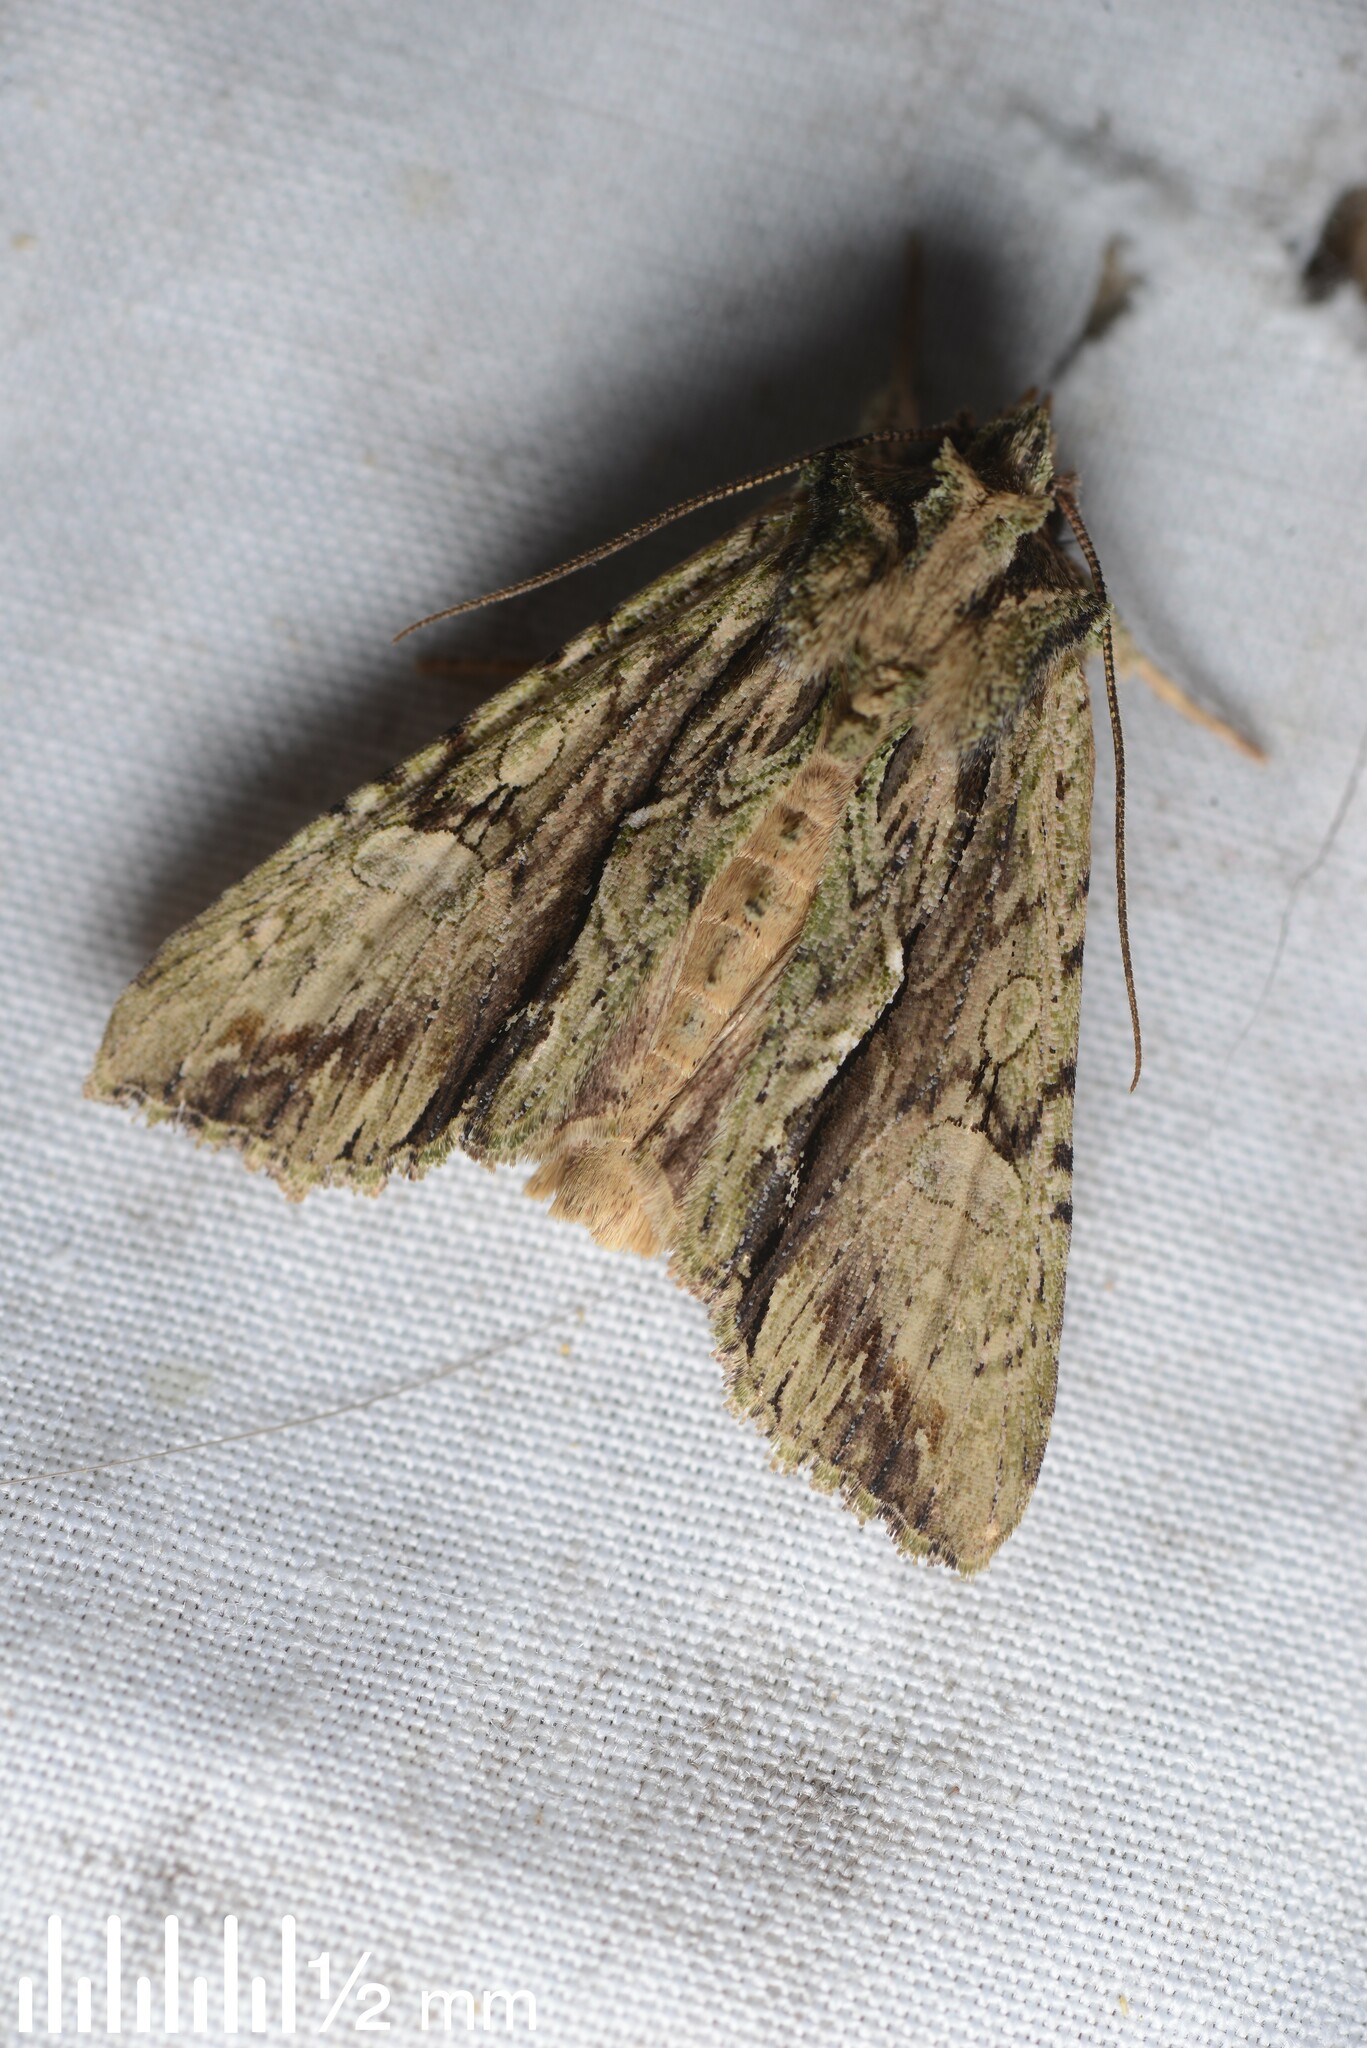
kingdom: Animalia
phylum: Arthropoda
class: Insecta
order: Lepidoptera
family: Noctuidae
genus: Meterana
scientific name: Meterana decorata
